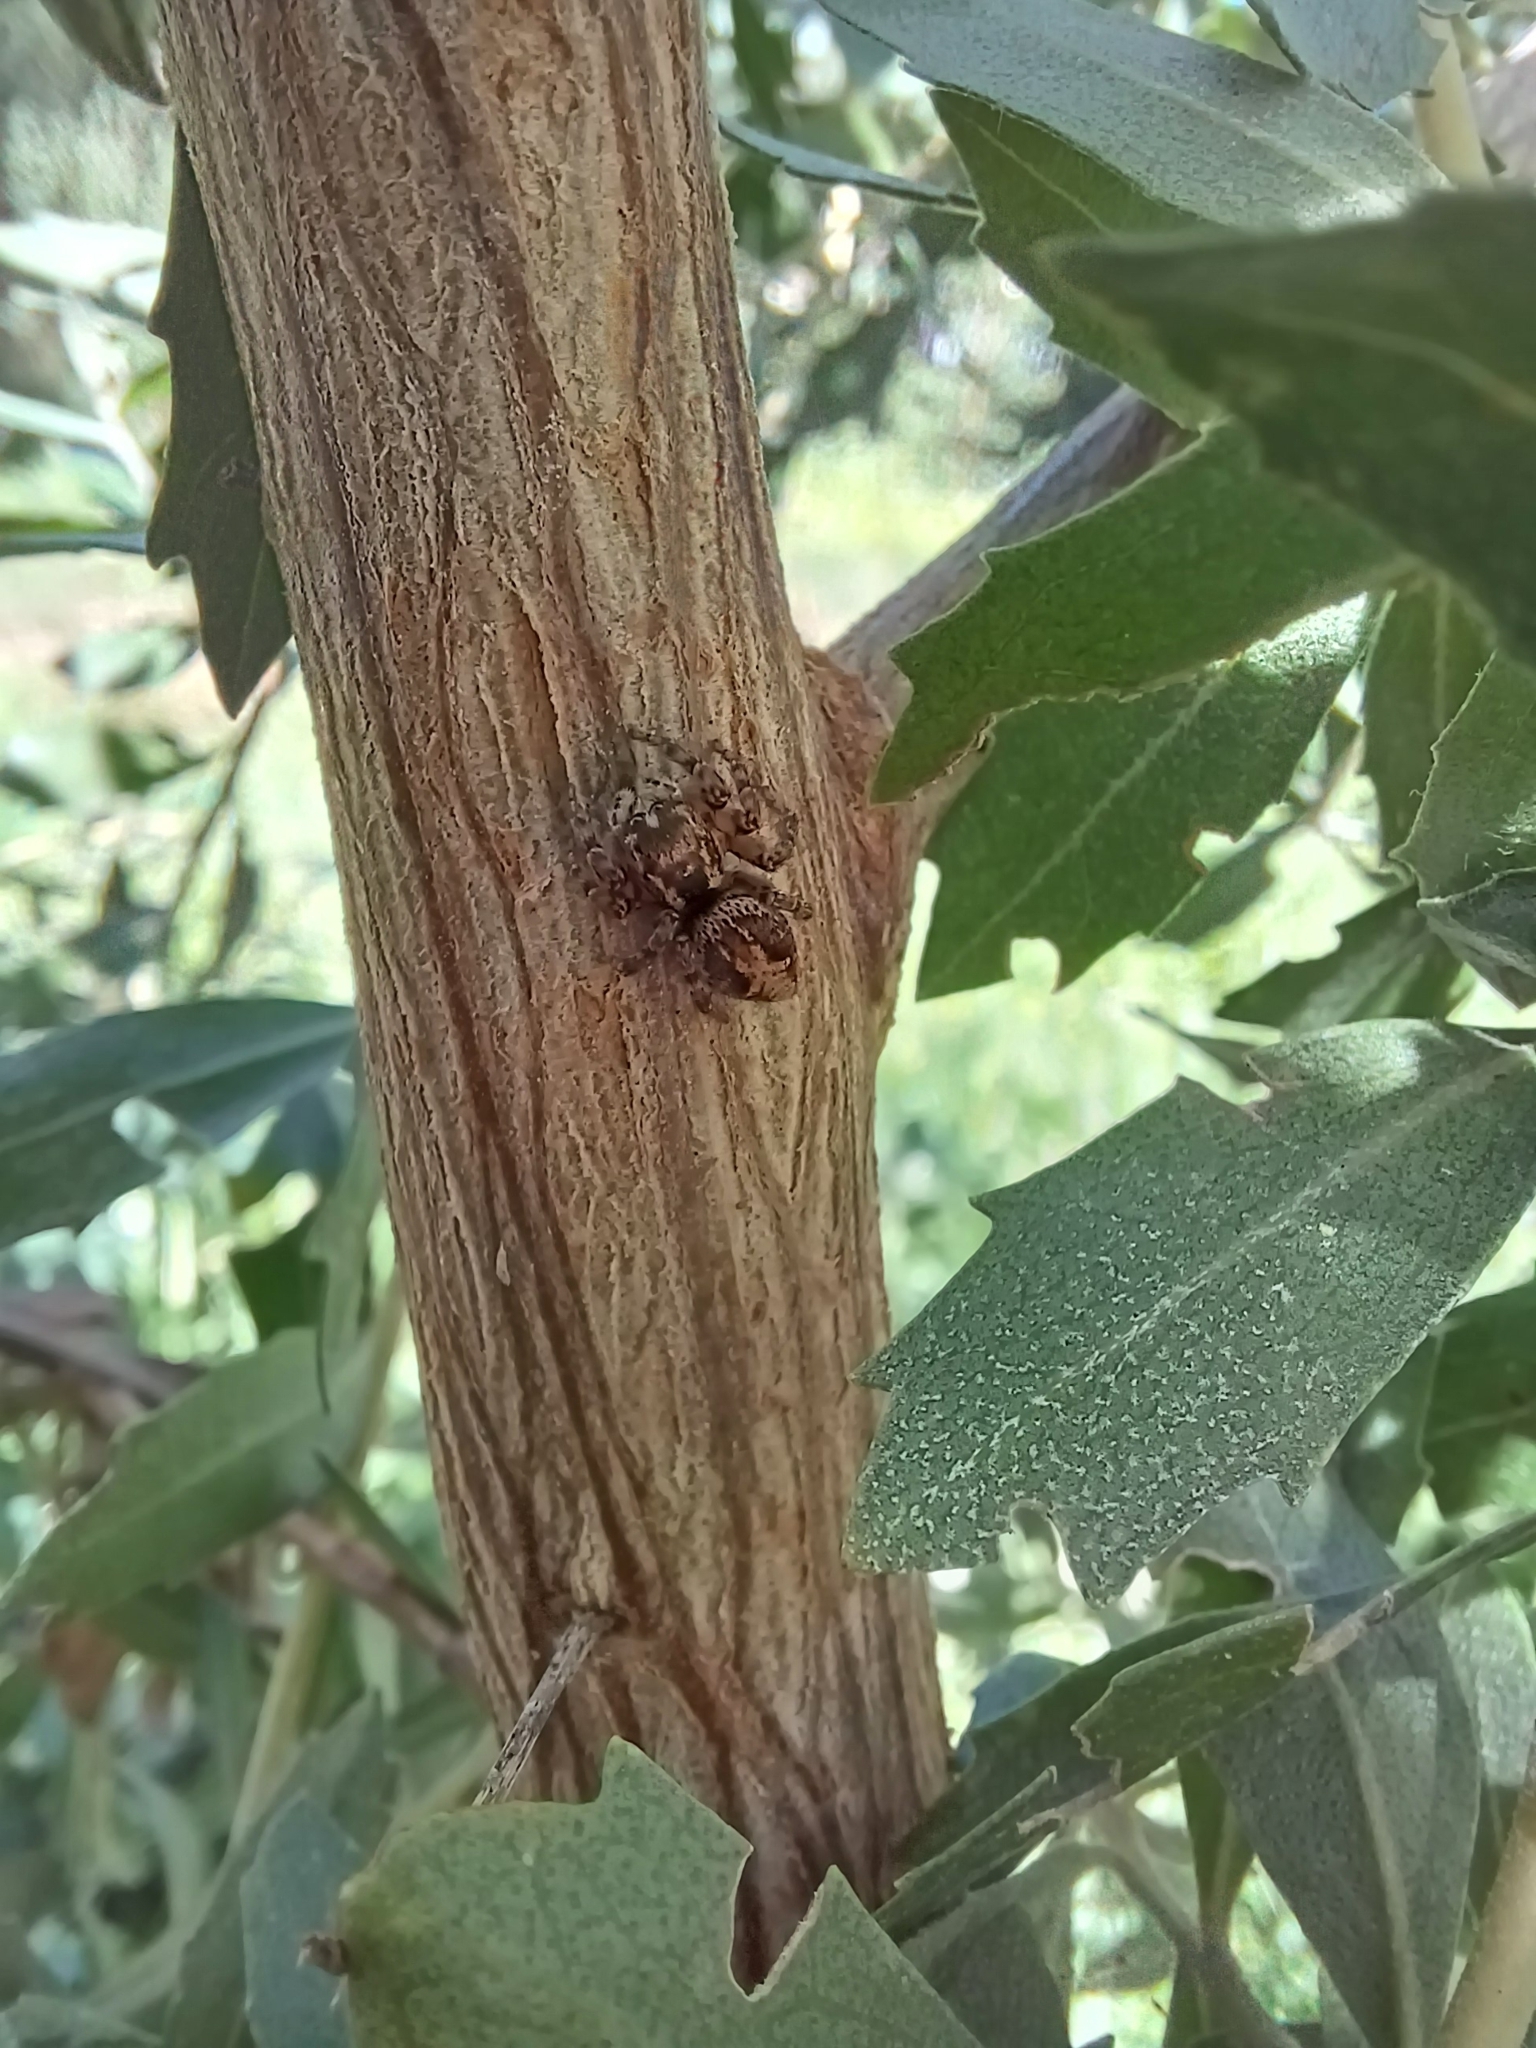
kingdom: Animalia
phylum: Arthropoda
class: Arachnida
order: Araneae
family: Salticidae
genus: Aphirape
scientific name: Aphirape flexa
